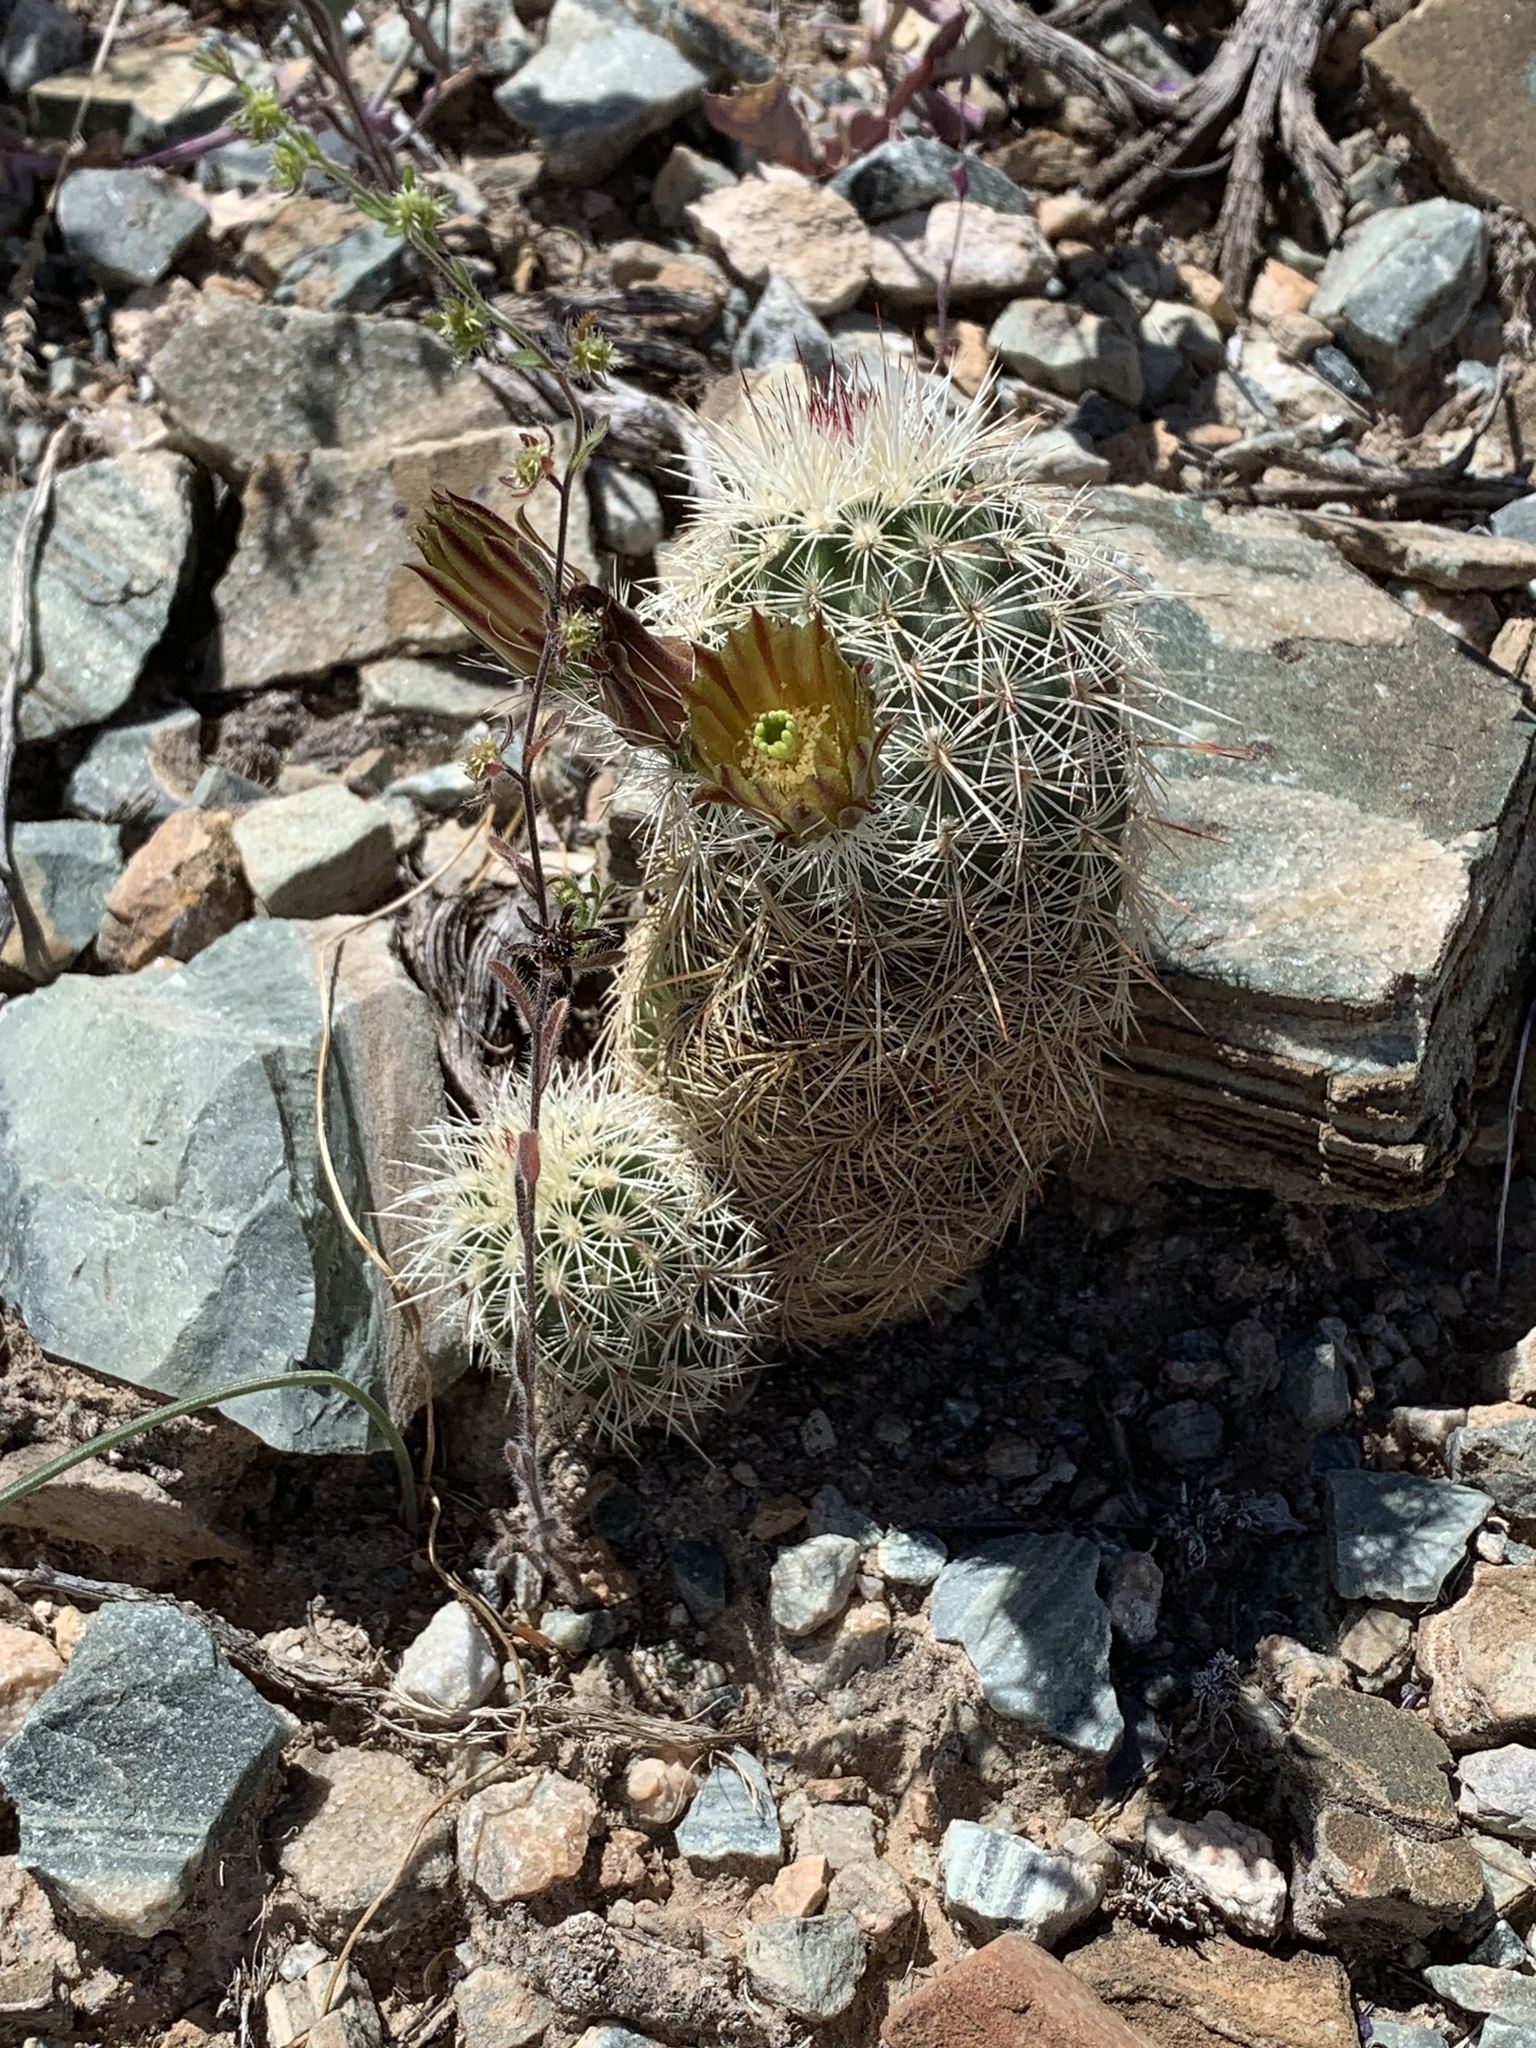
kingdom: Plantae
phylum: Tracheophyta
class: Magnoliopsida
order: Caryophyllales
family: Cactaceae
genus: Echinocereus
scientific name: Echinocereus viridiflorus
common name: Nylon hedgehog cactus
